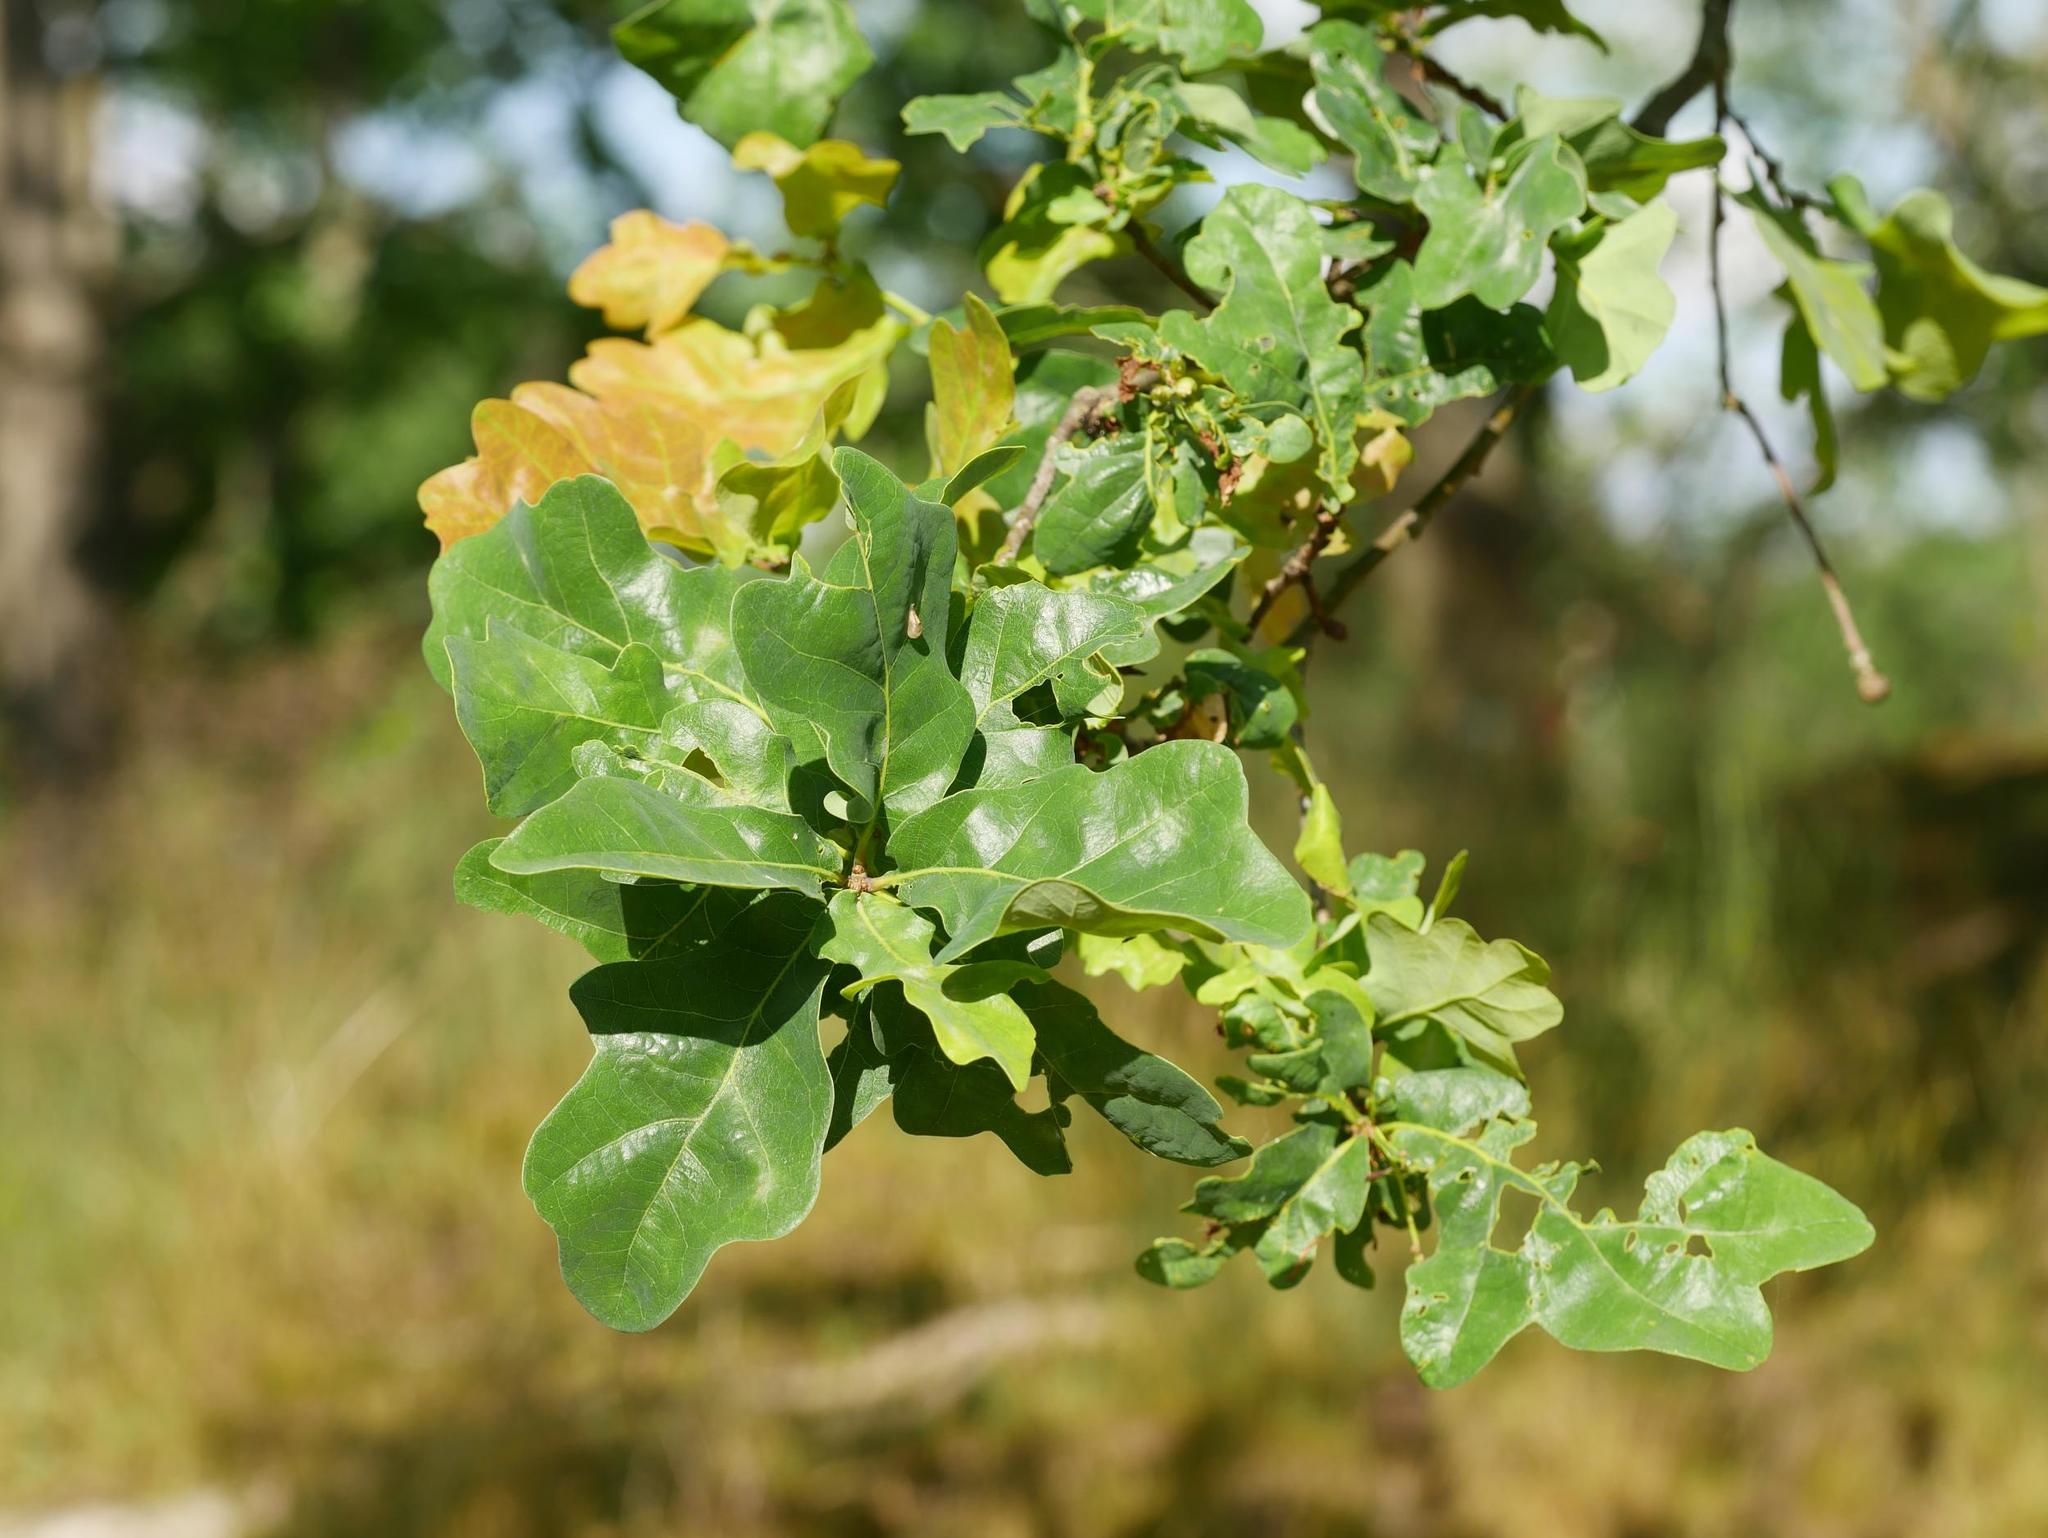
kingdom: Plantae
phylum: Tracheophyta
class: Magnoliopsida
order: Fagales
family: Fagaceae
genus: Quercus
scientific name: Quercus robur
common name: Pedunculate oak
